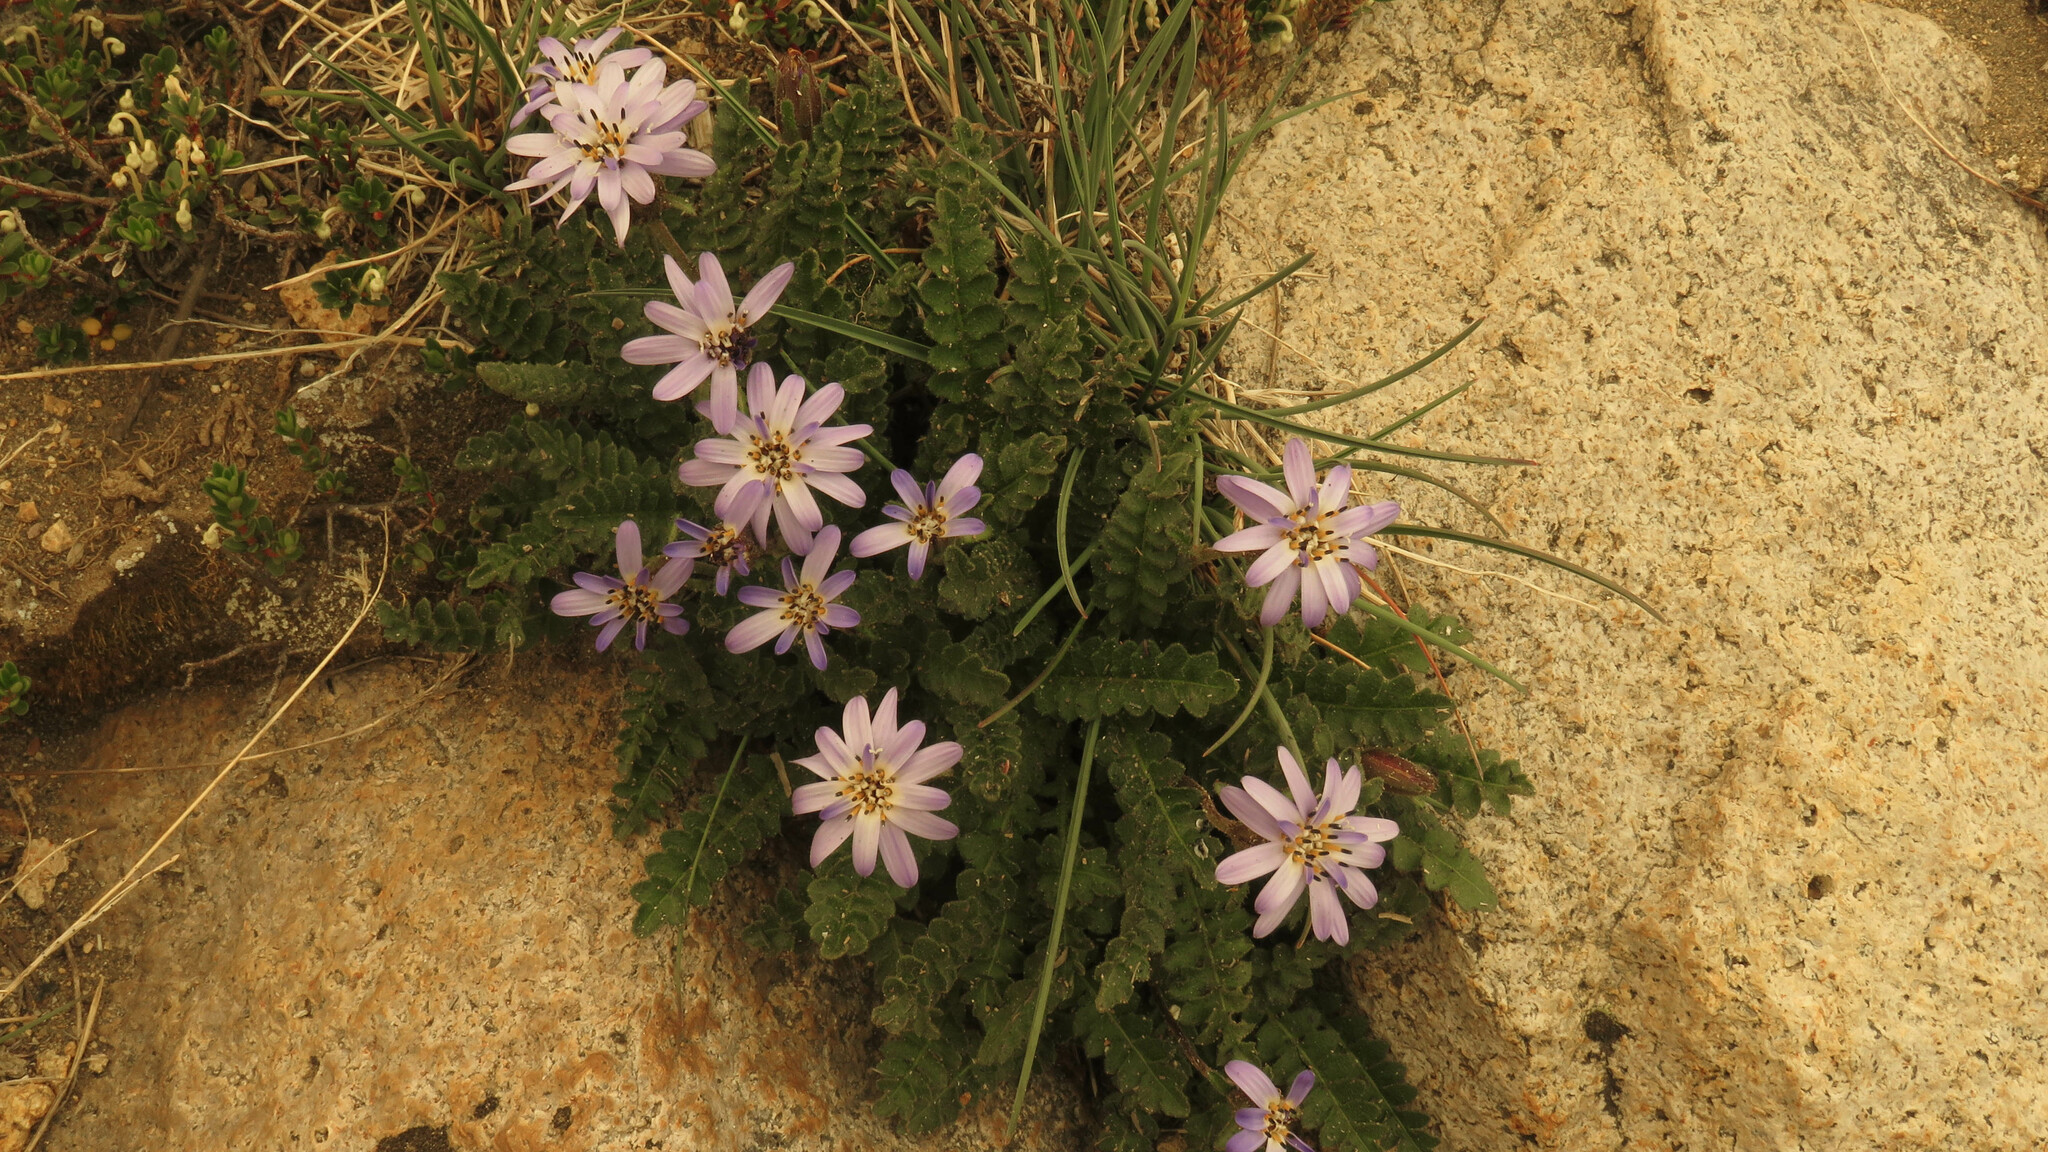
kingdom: Plantae
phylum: Tracheophyta
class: Magnoliopsida
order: Asterales
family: Asteraceae
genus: Perezia
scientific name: Perezia fonckii
